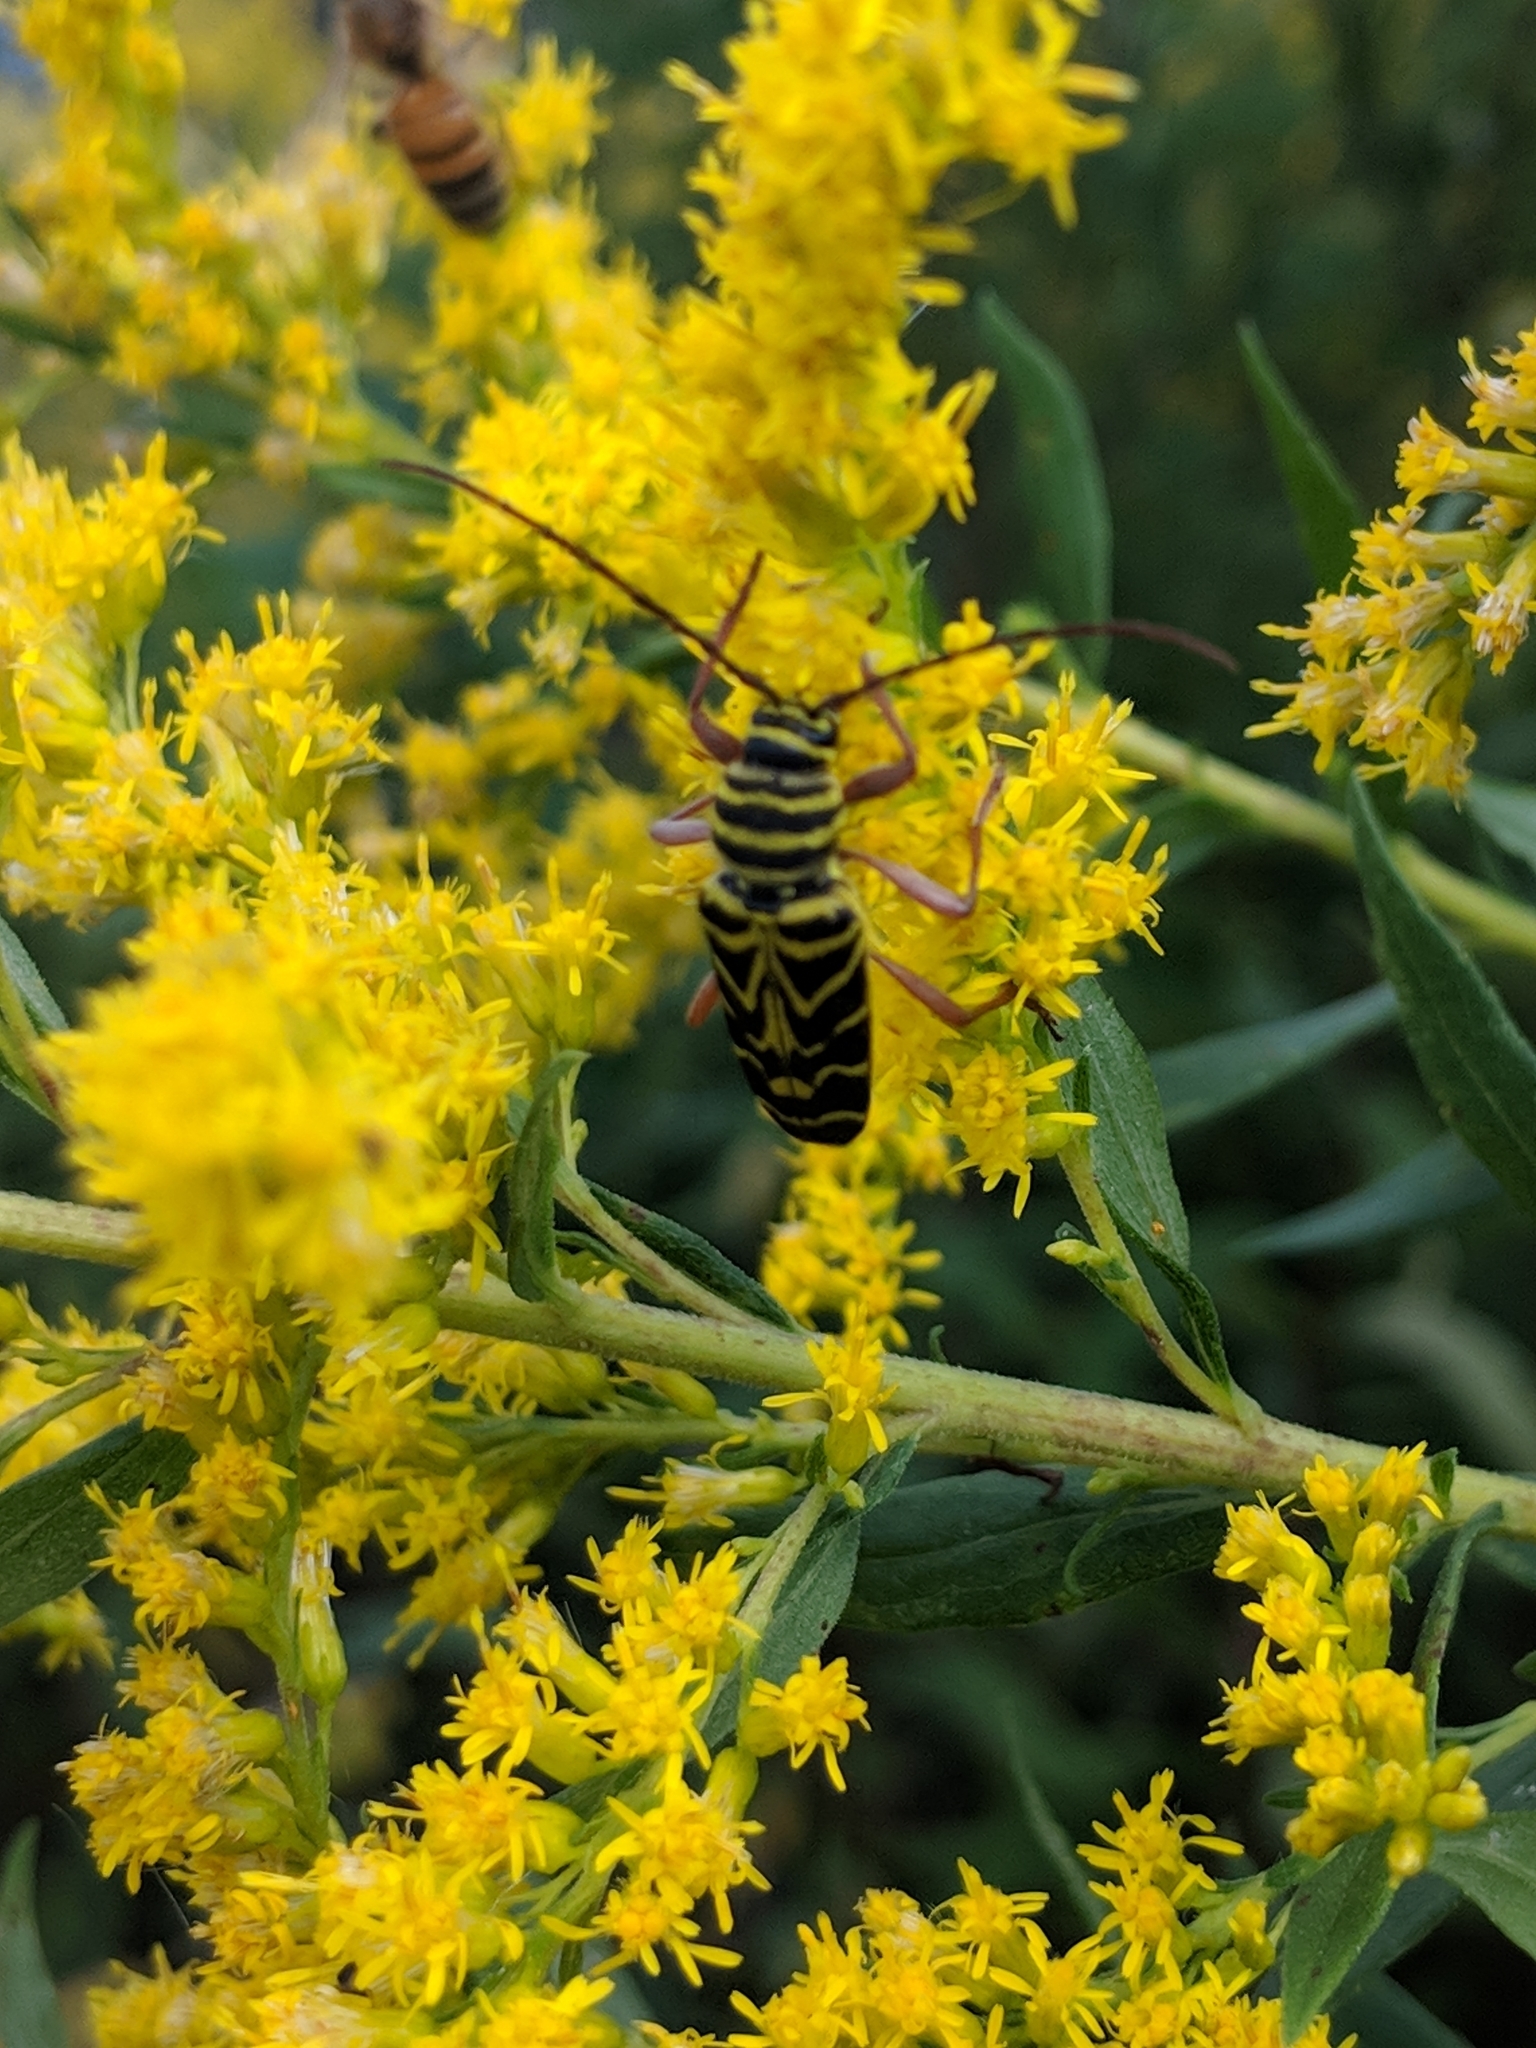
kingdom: Animalia
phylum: Arthropoda
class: Insecta
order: Coleoptera
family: Cerambycidae
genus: Megacyllene
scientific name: Megacyllene robiniae
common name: Locust borer
